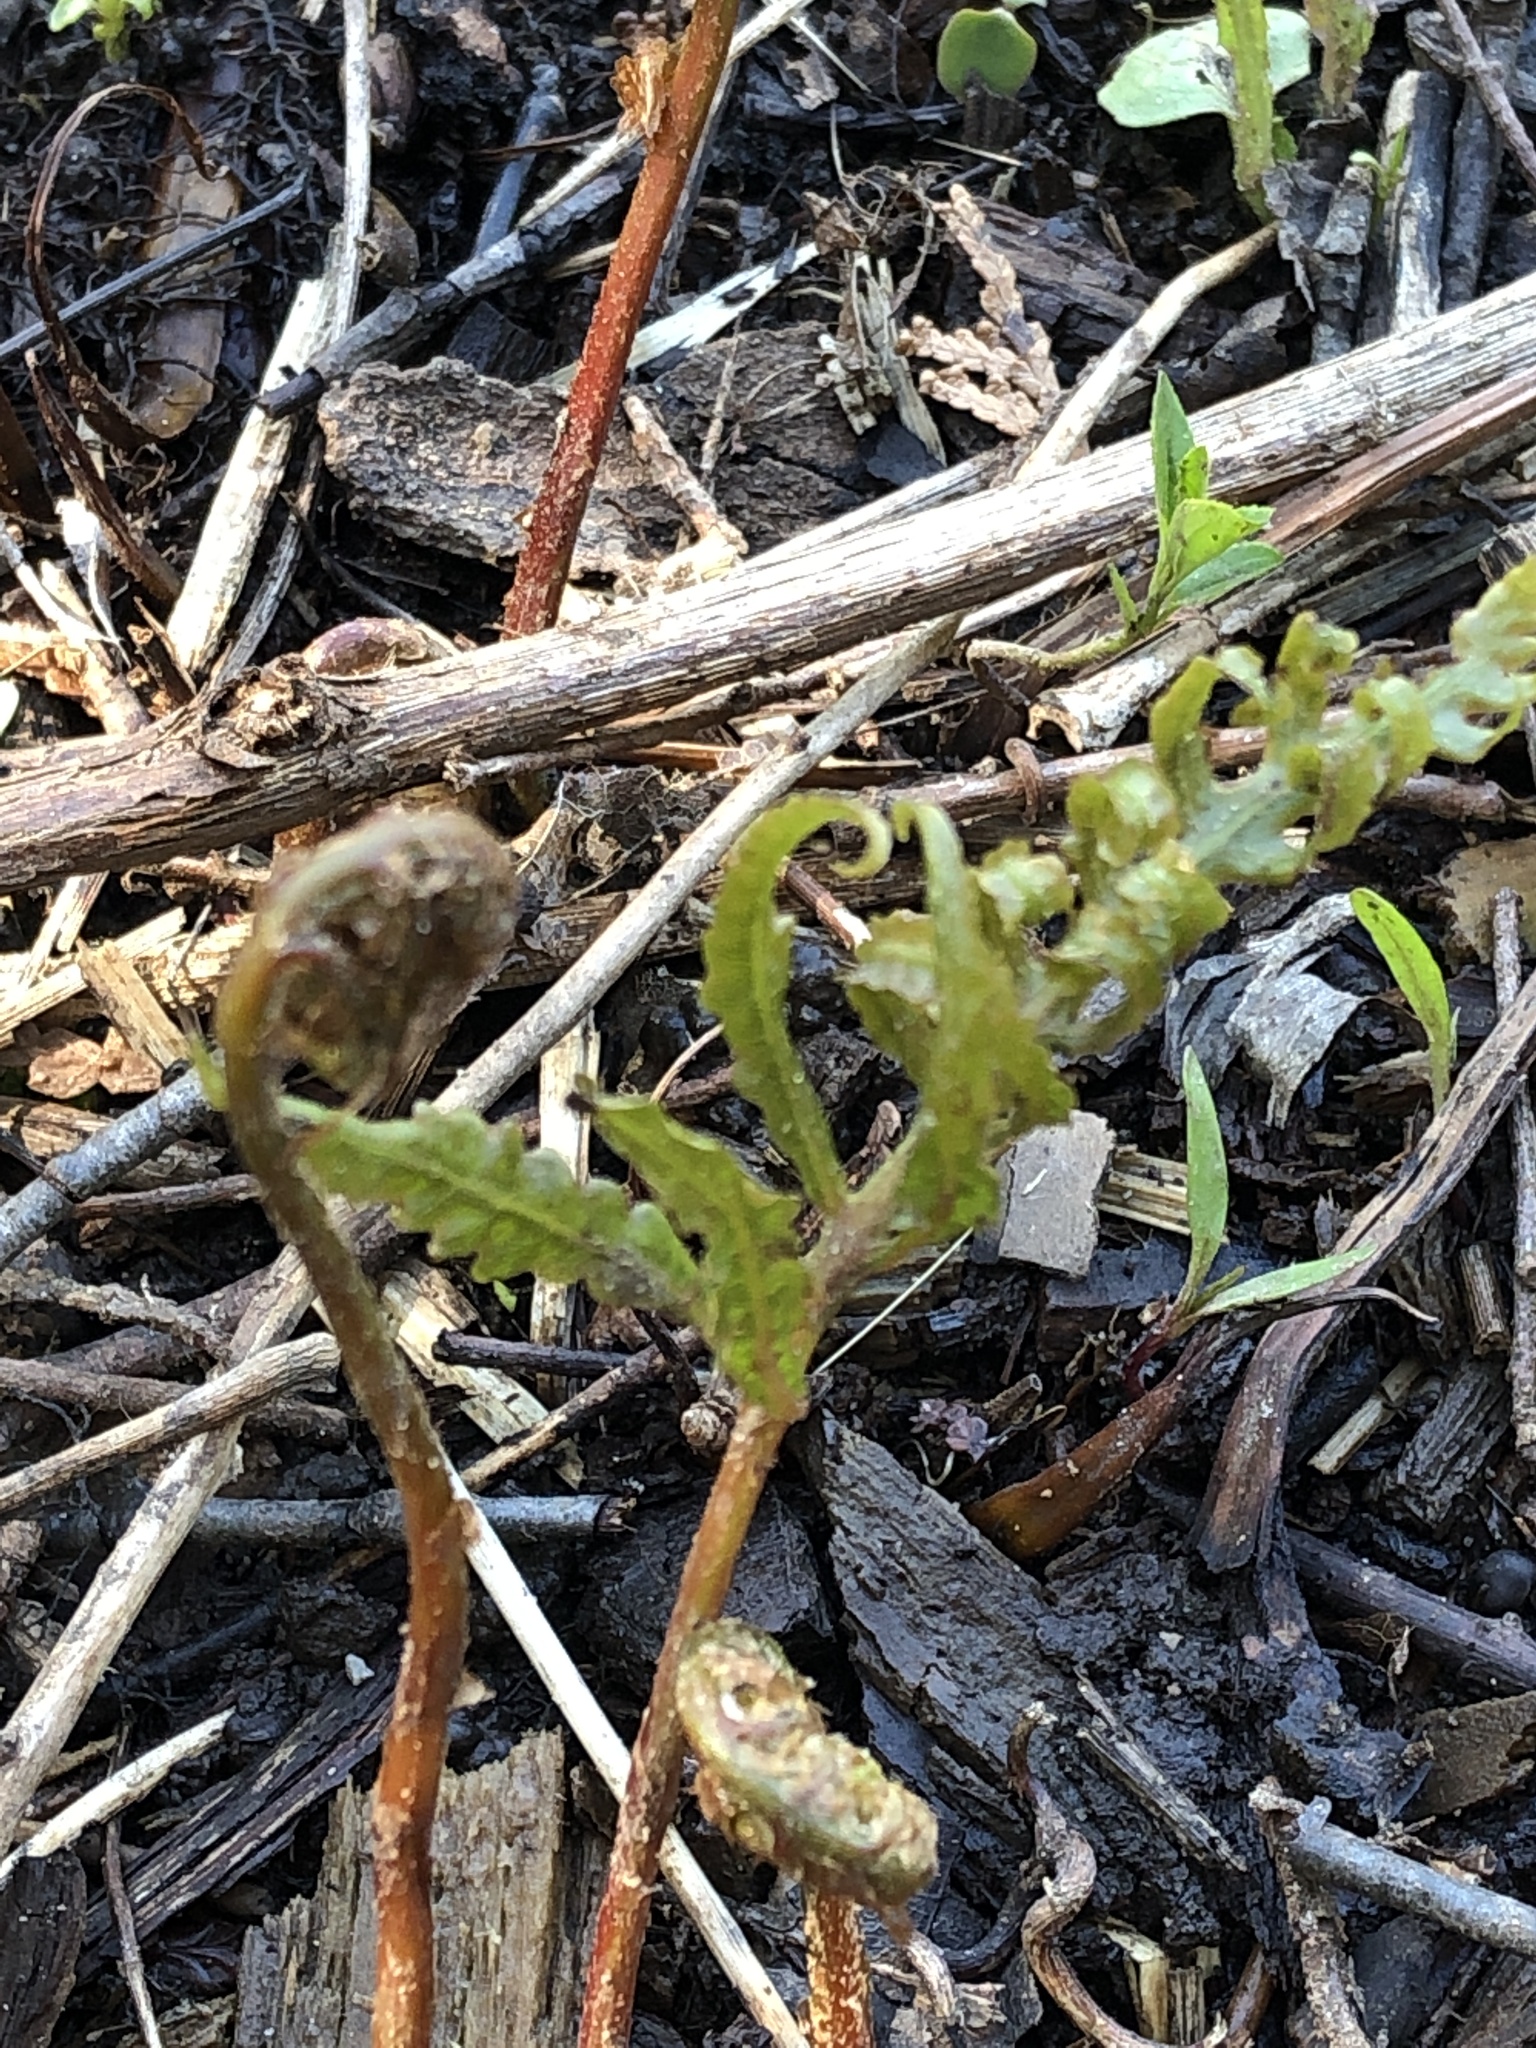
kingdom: Plantae
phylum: Tracheophyta
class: Polypodiopsida
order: Polypodiales
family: Onocleaceae
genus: Onoclea
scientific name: Onoclea sensibilis
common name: Sensitive fern
